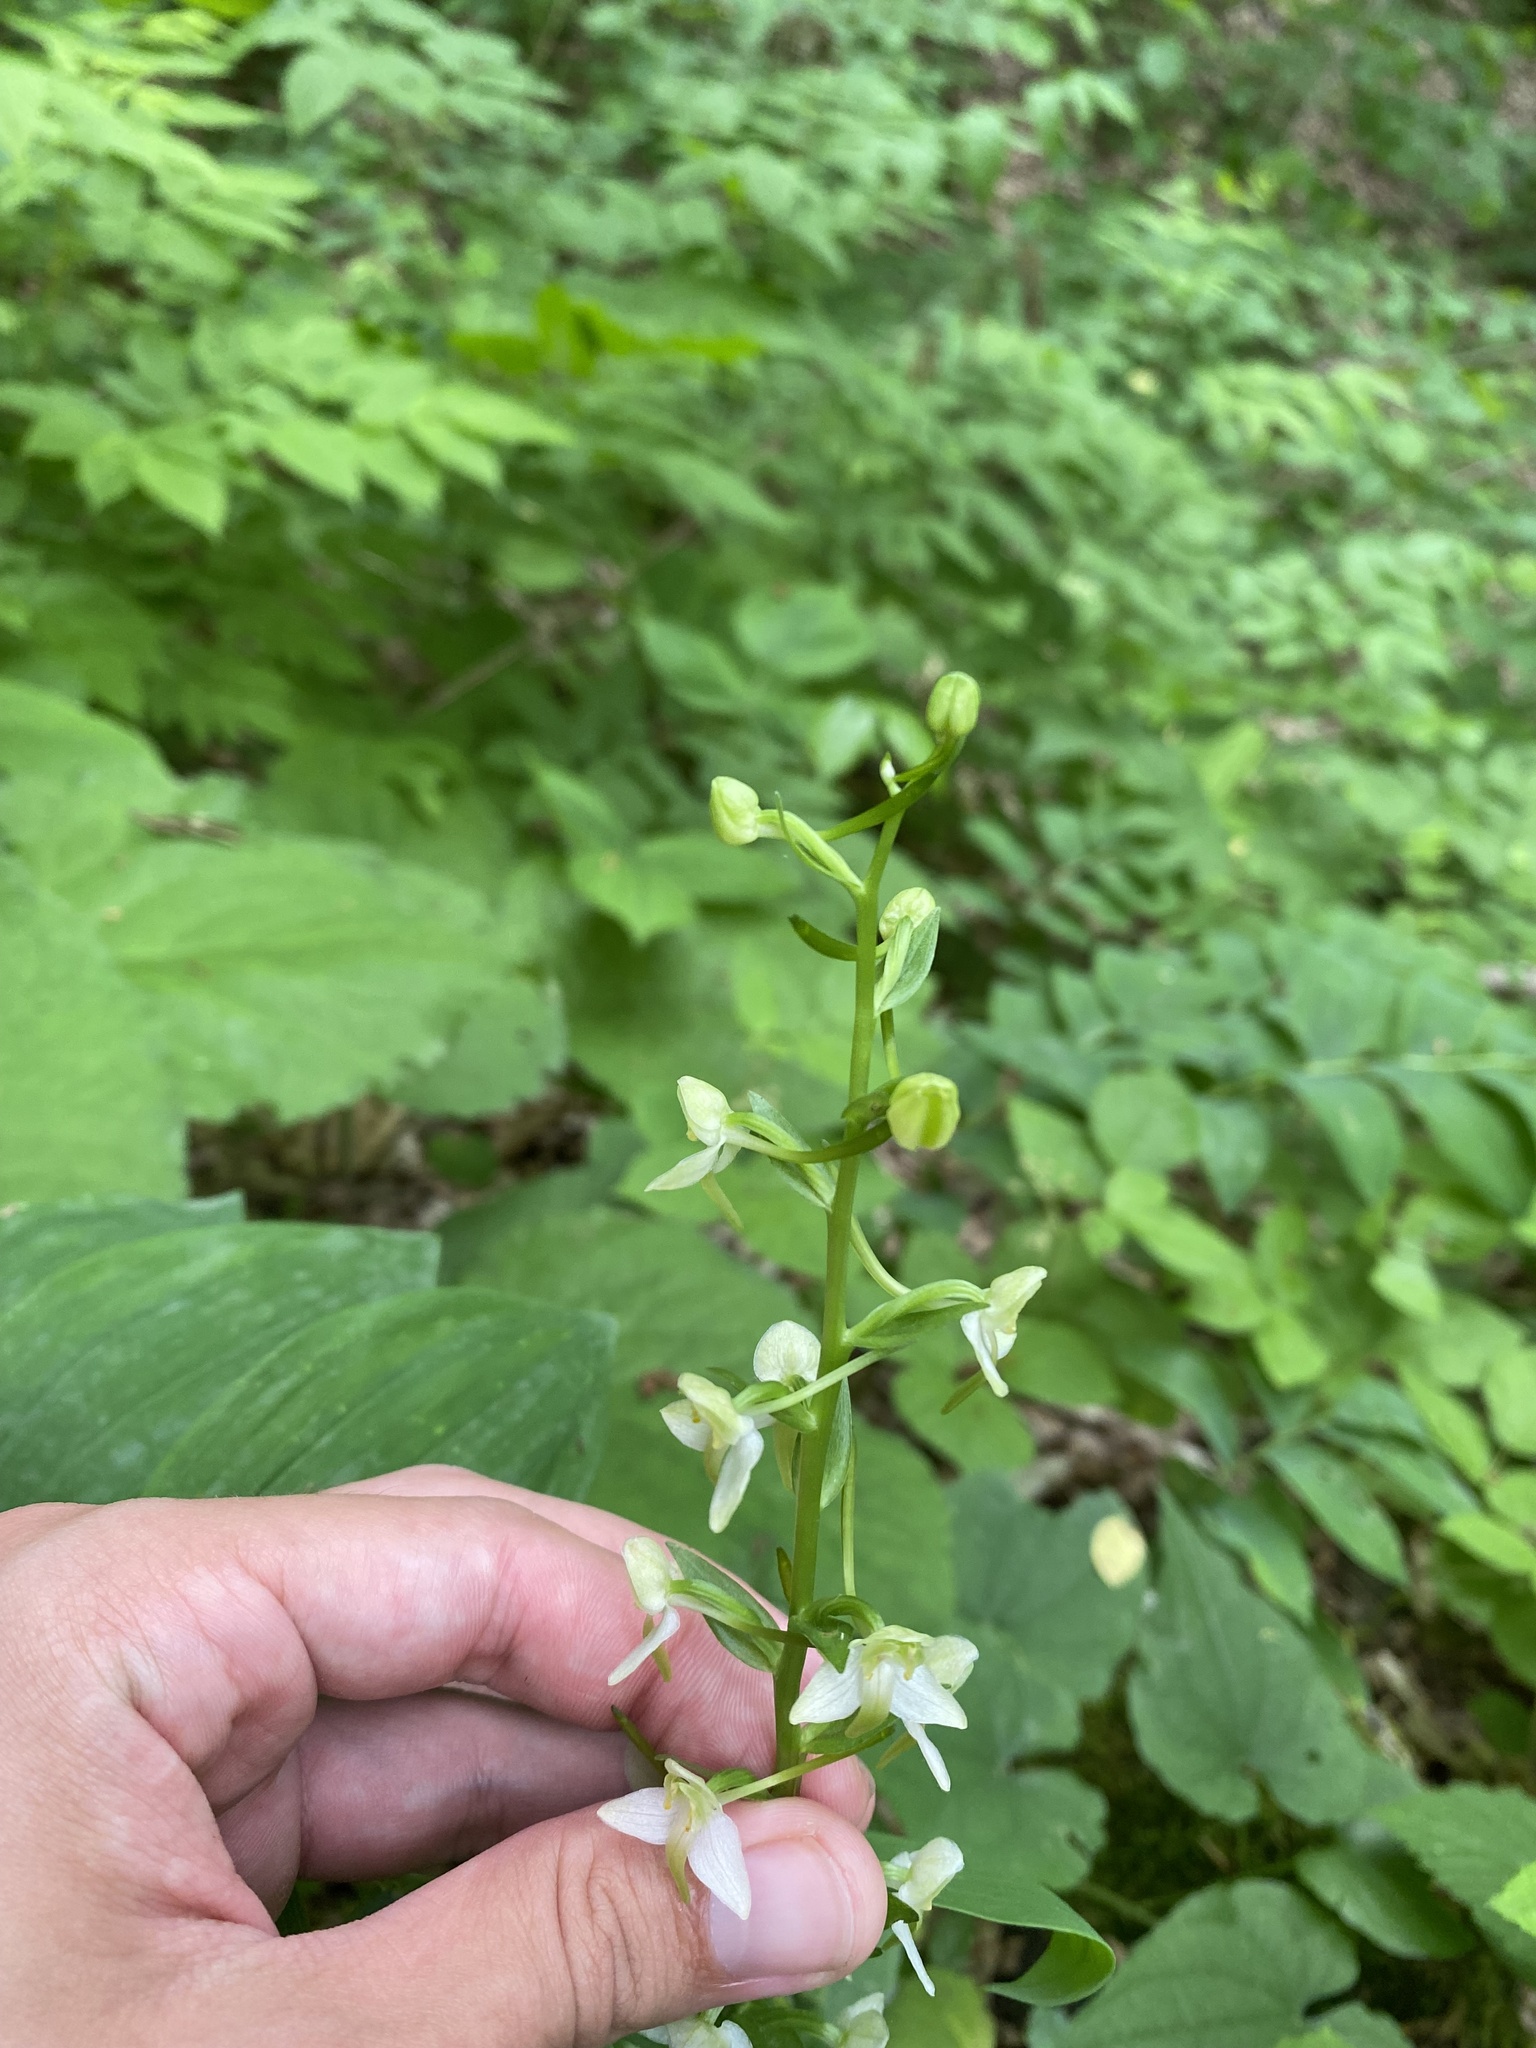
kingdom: Plantae
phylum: Tracheophyta
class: Liliopsida
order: Asparagales
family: Orchidaceae
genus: Platanthera
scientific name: Platanthera chlorantha
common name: Greater butterfly-orchid
